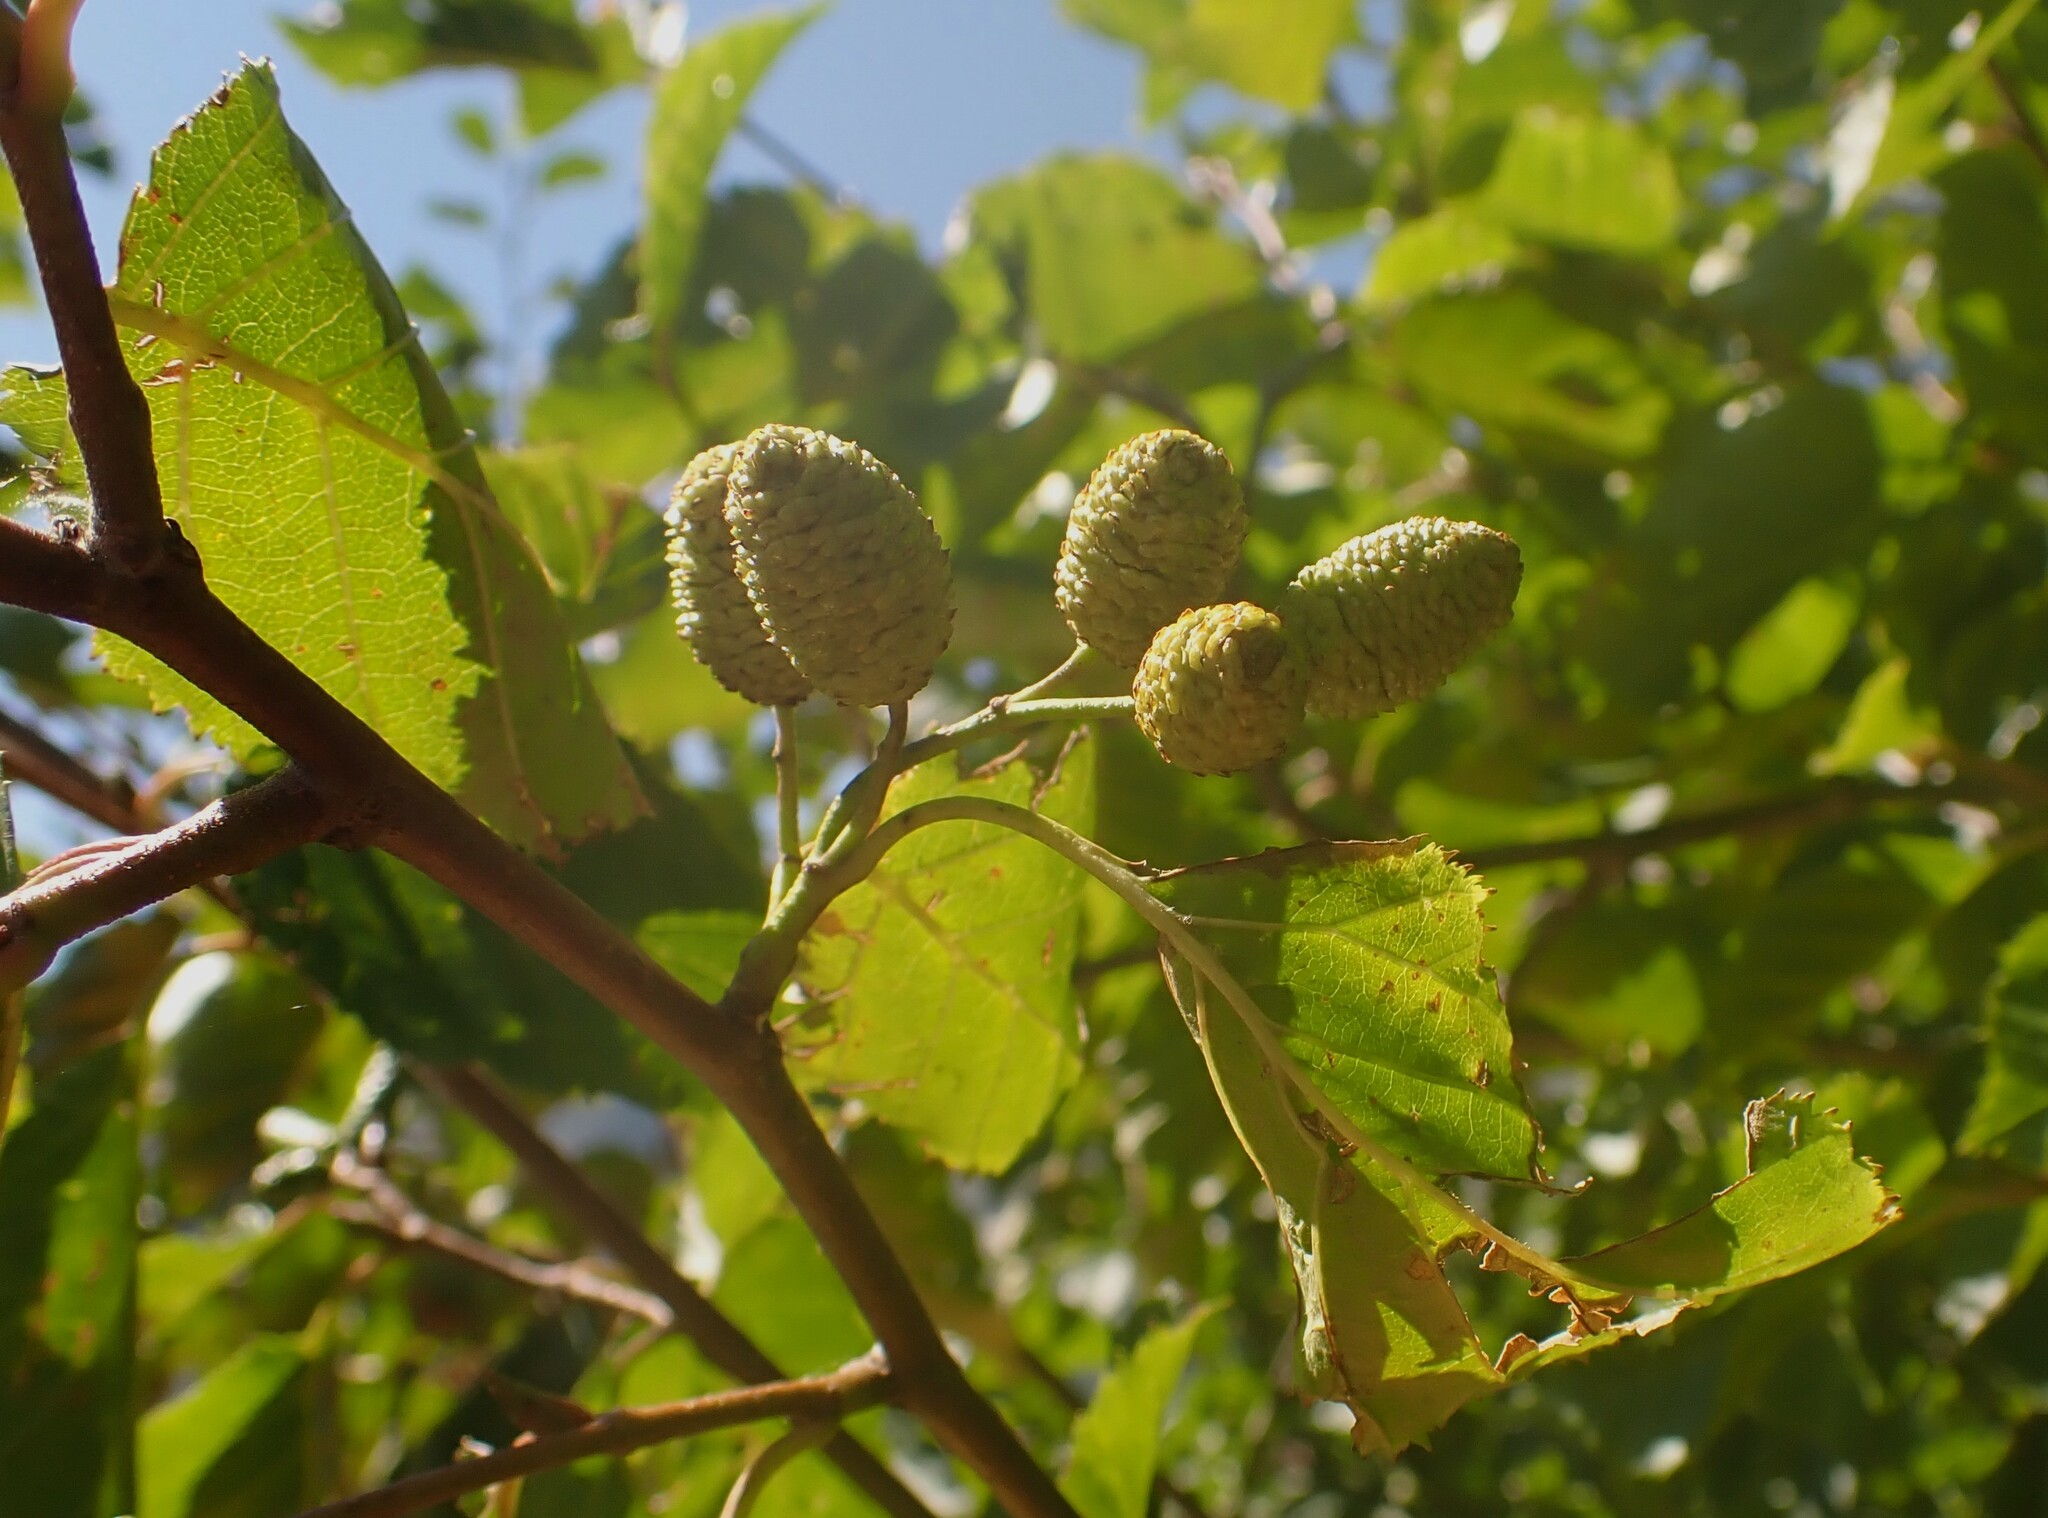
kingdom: Plantae
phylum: Tracheophyta
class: Magnoliopsida
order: Fagales
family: Betulaceae
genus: Alnus
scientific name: Alnus alnobetula
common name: Green alder
